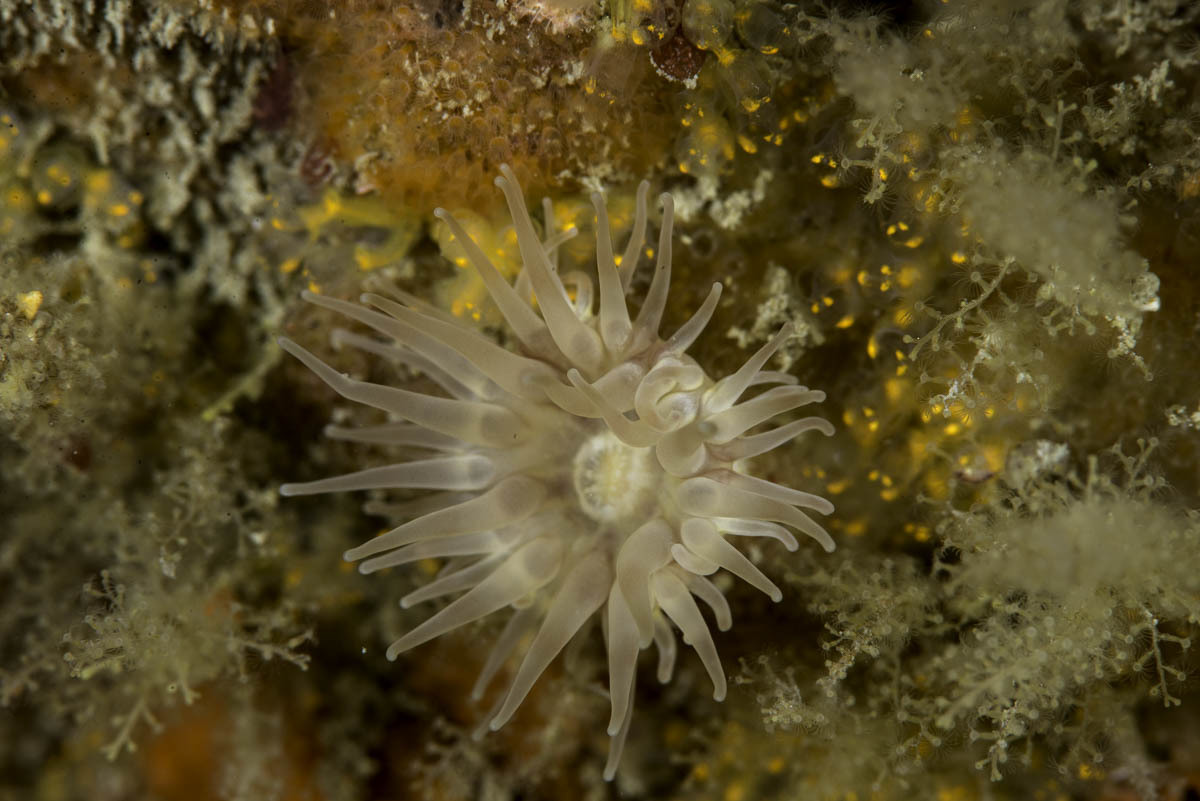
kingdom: Animalia
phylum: Cnidaria
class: Anthozoa
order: Actiniaria
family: Phelliidae
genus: Phellia
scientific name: Phellia gausapata
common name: Olive green wart anemone
